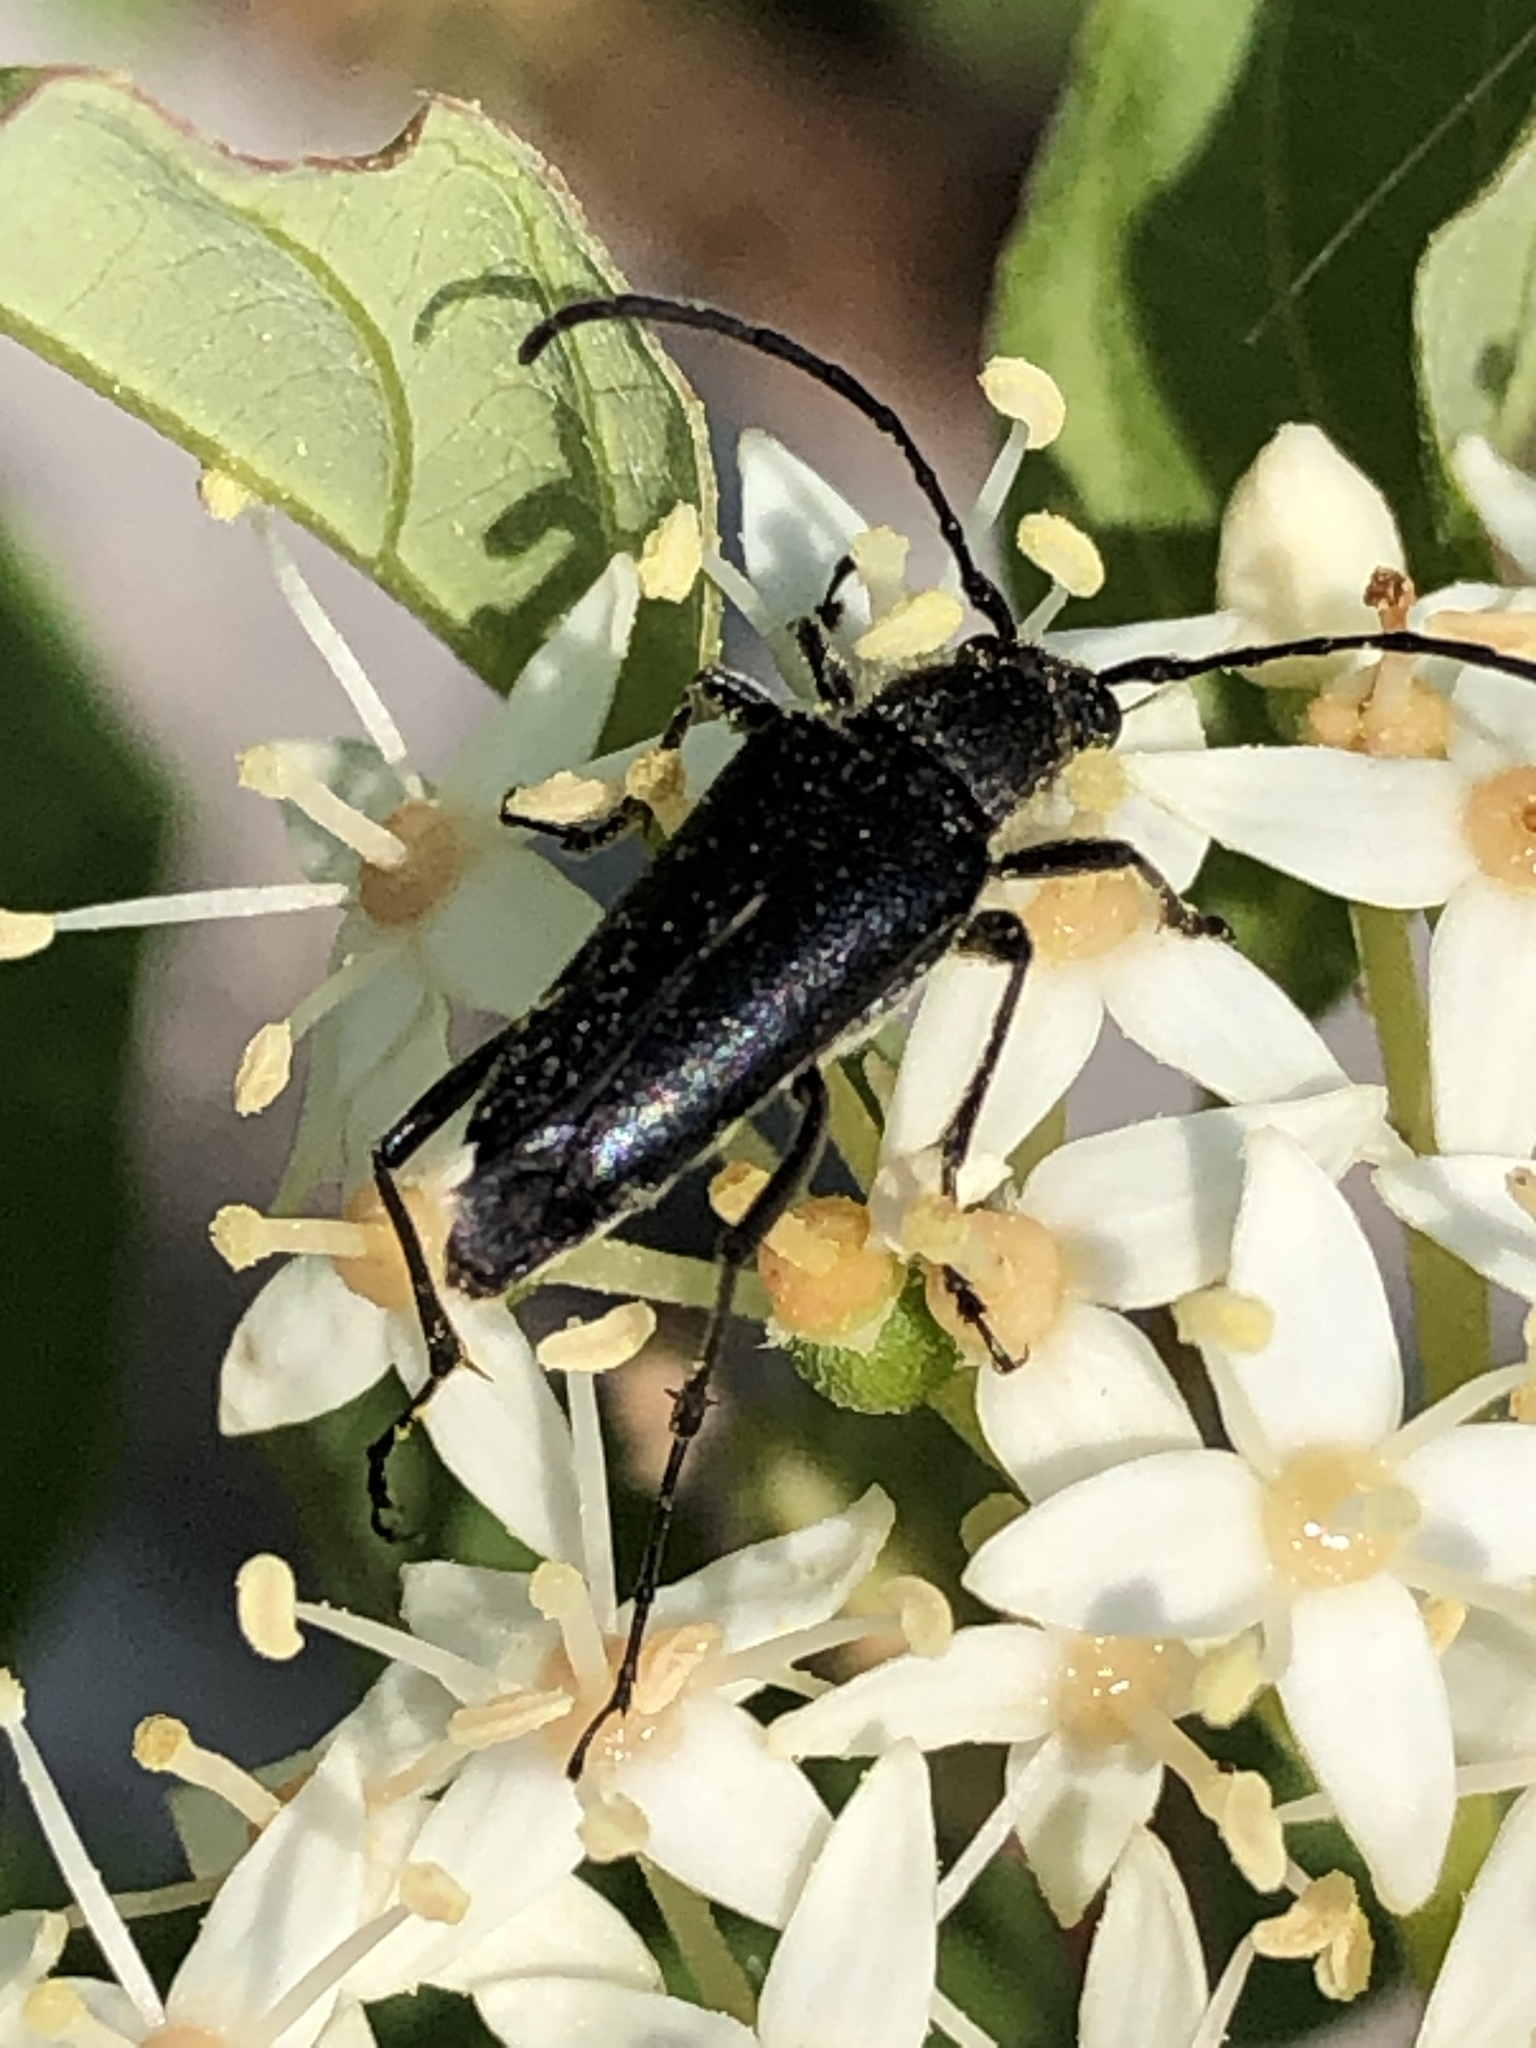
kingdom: Animalia
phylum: Arthropoda
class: Insecta
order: Coleoptera
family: Cerambycidae
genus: Anastrangalia
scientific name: Anastrangalia laetifica
